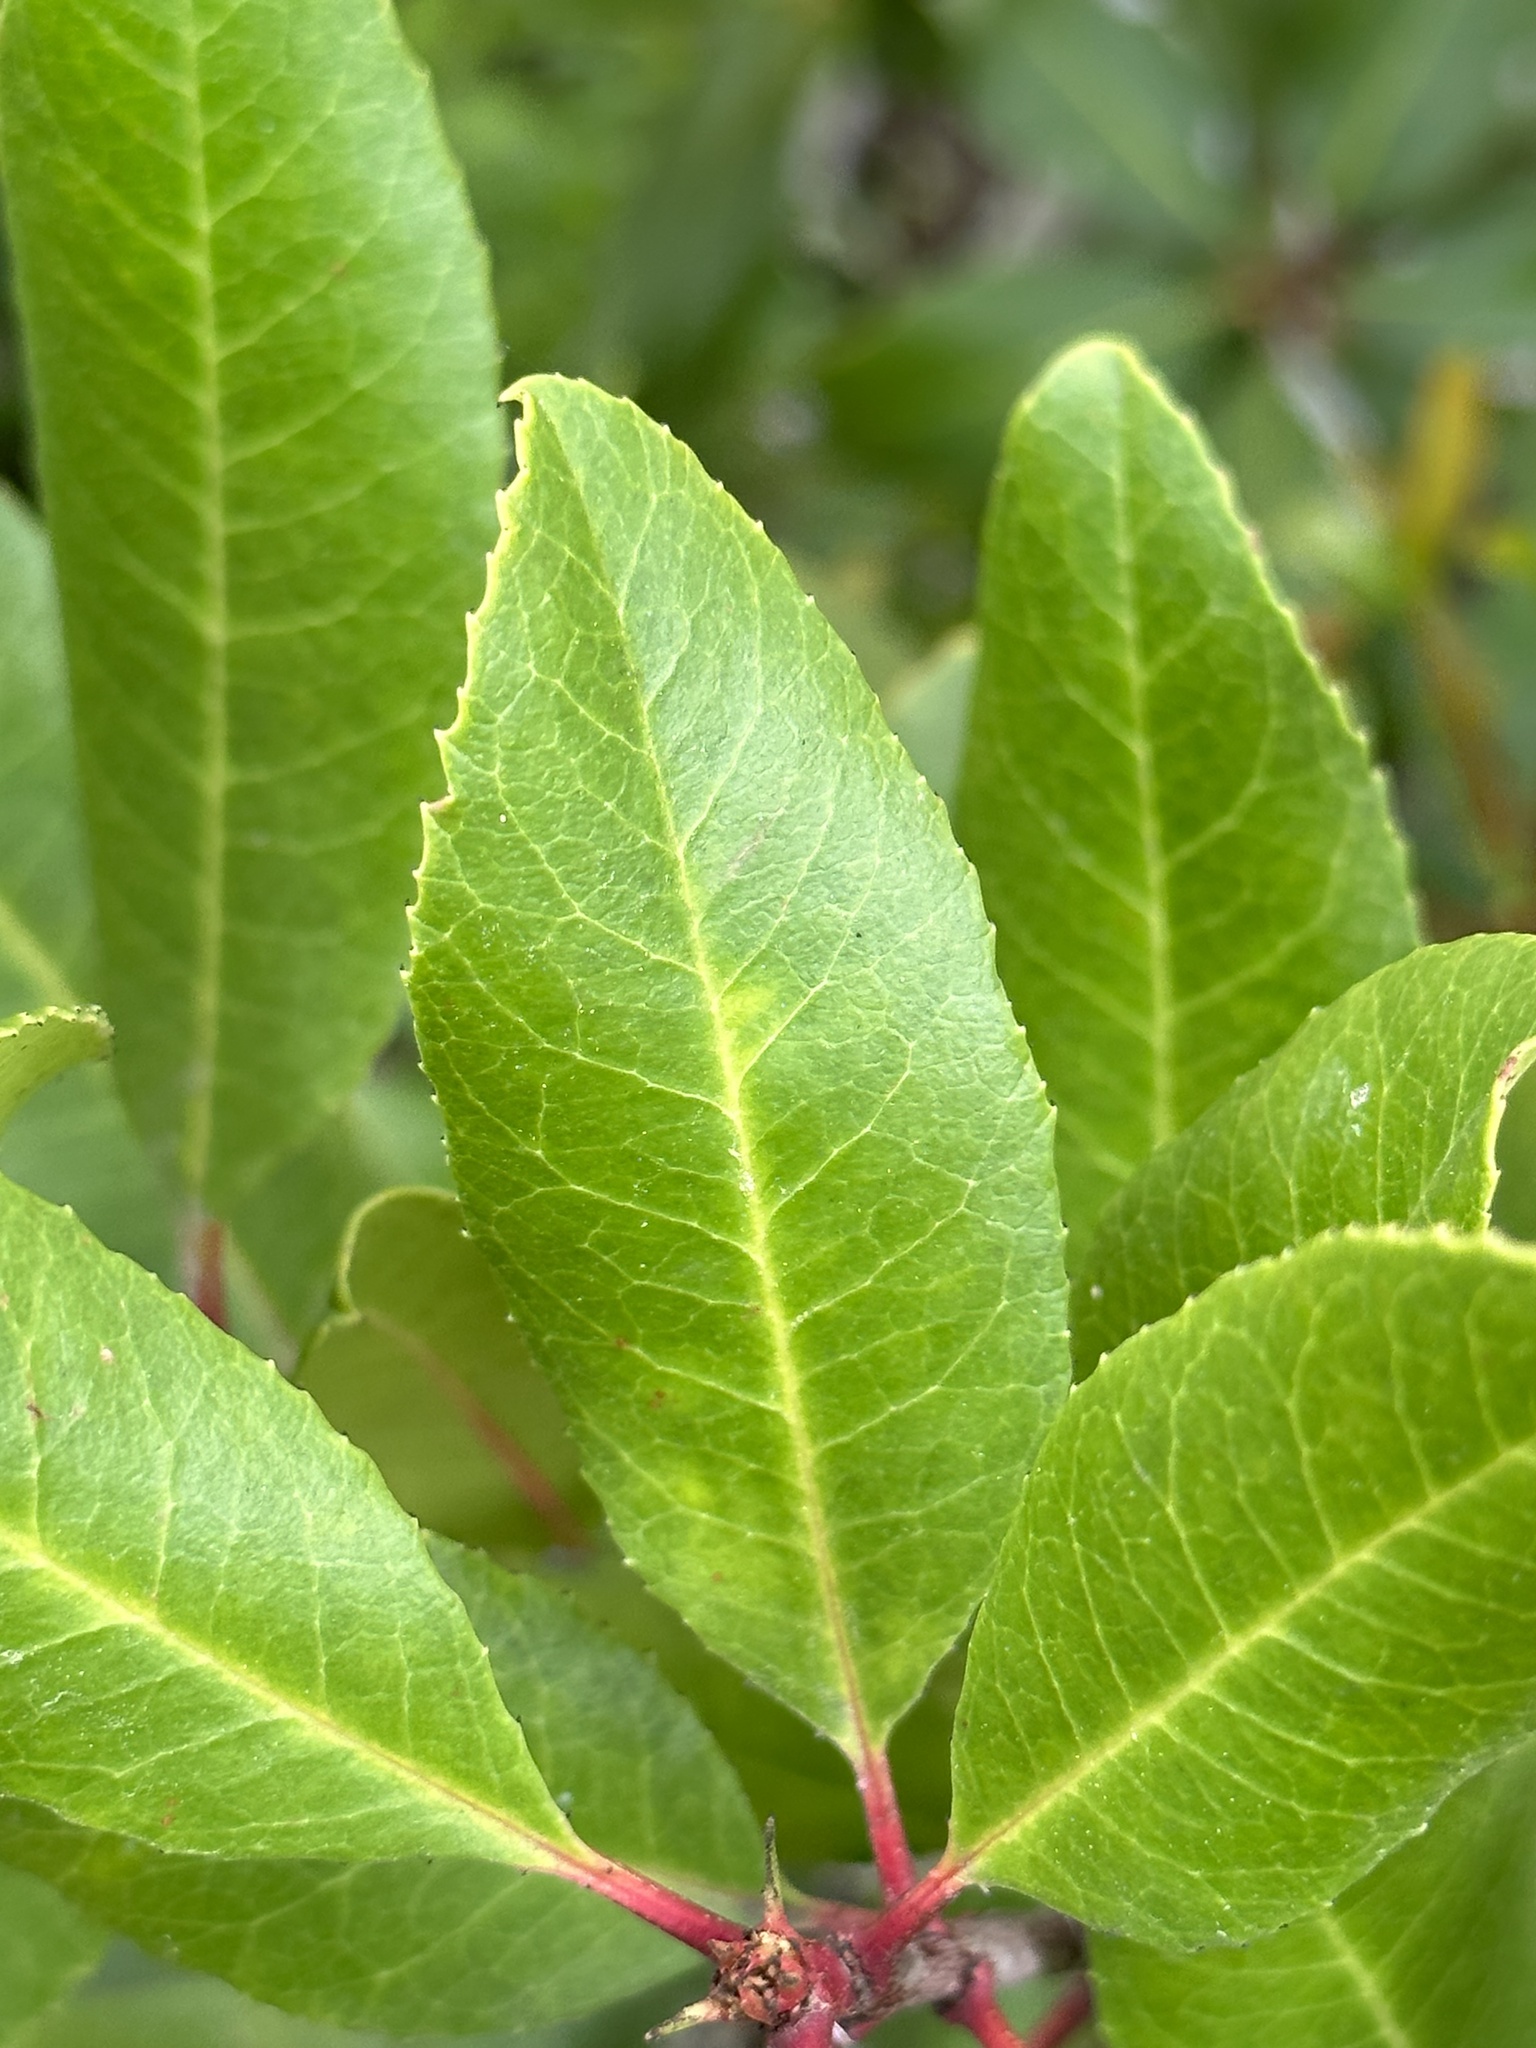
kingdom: Plantae
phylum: Tracheophyta
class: Magnoliopsida
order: Rosales
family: Rosaceae
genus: Heteromeles
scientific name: Heteromeles arbutifolia
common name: California-holly
